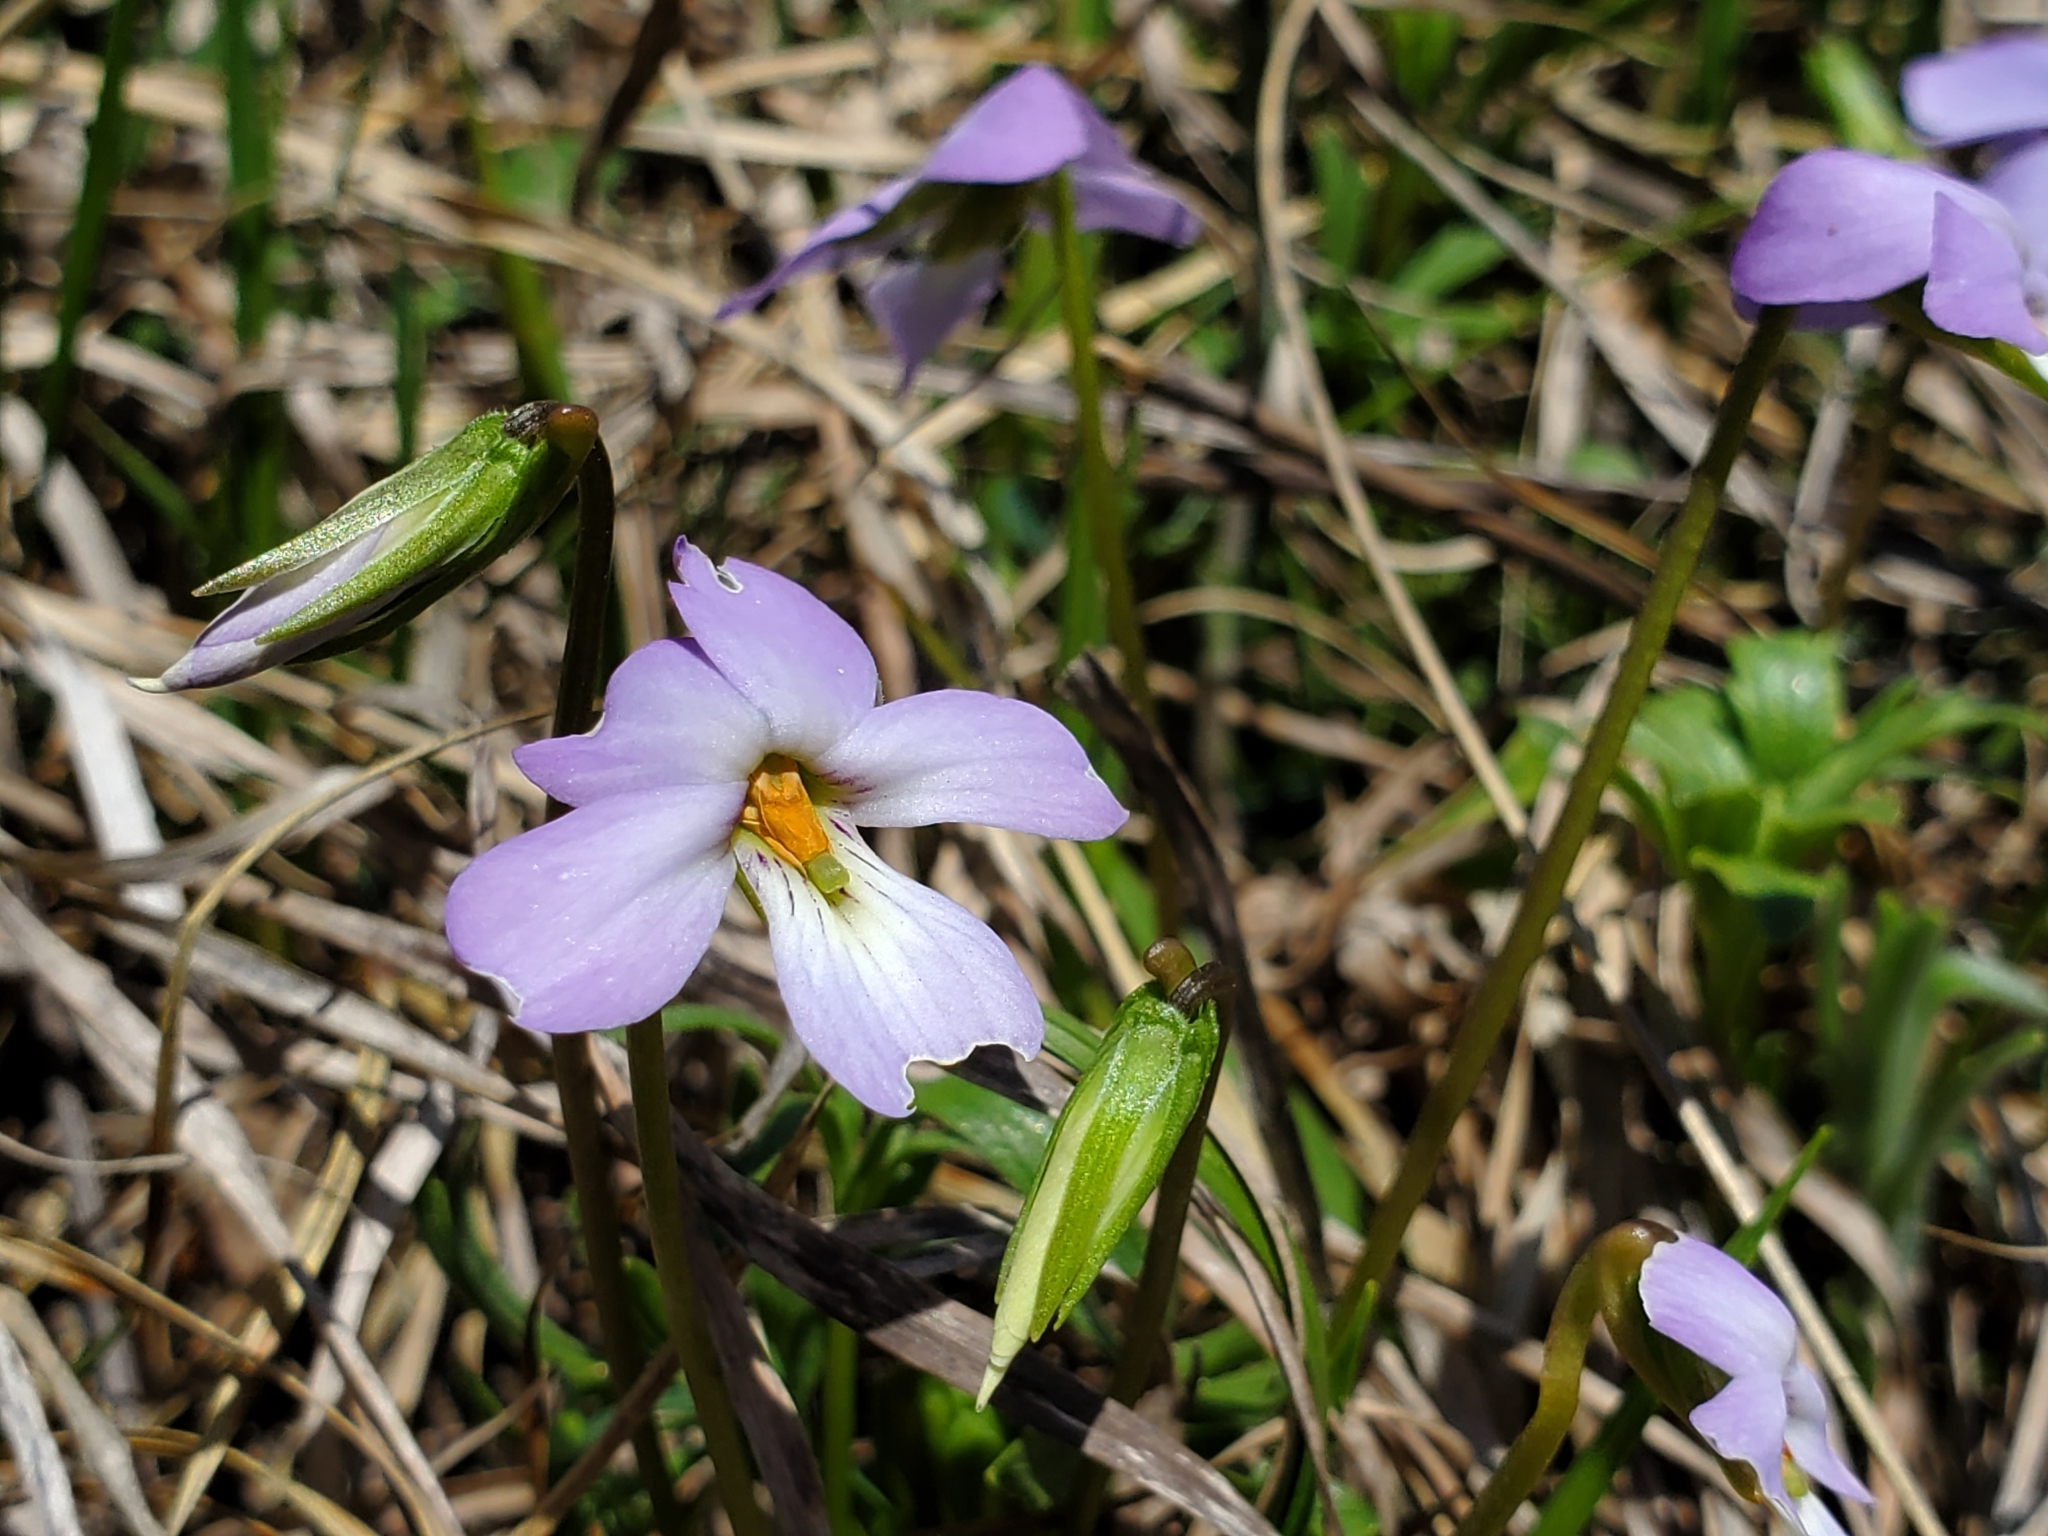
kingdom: Plantae
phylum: Tracheophyta
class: Magnoliopsida
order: Malpighiales
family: Violaceae
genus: Viola
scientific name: Viola pedata
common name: Pansy violet
